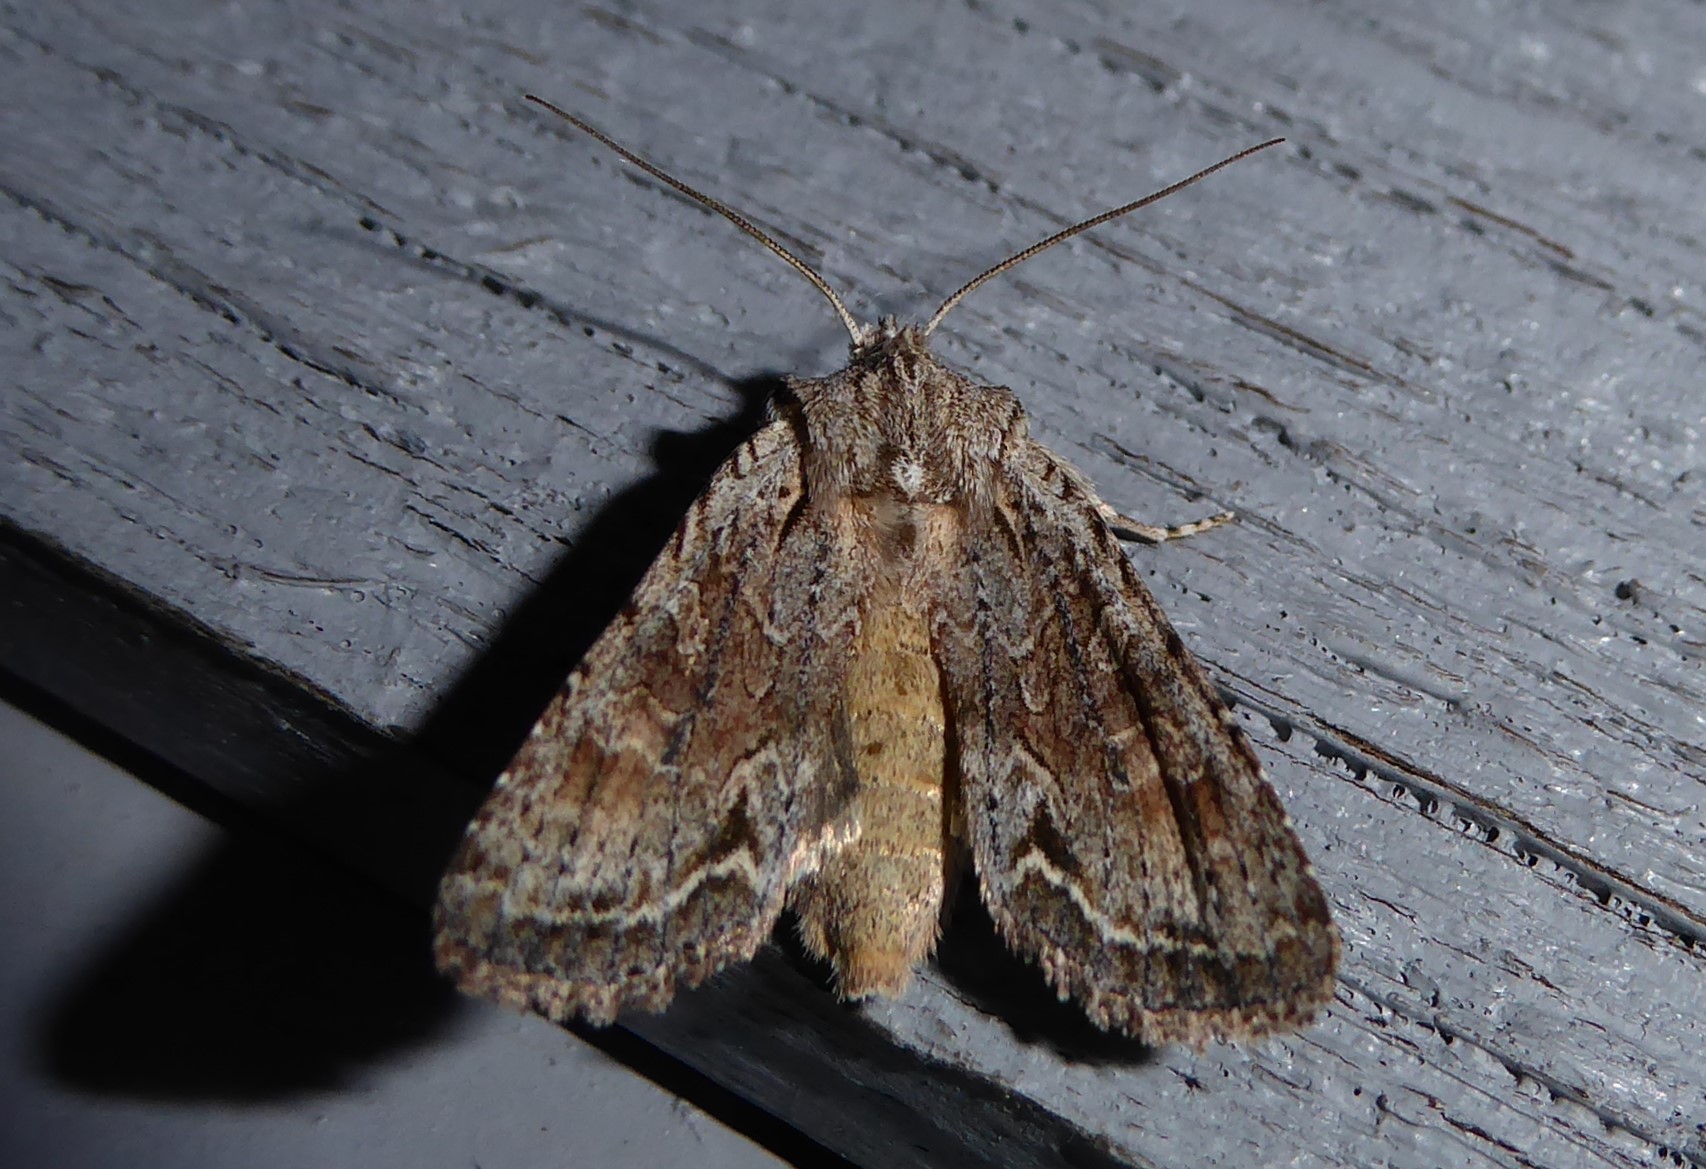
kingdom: Animalia
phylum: Arthropoda
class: Insecta
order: Lepidoptera
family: Noctuidae
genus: Ichneutica
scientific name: Ichneutica mutans
